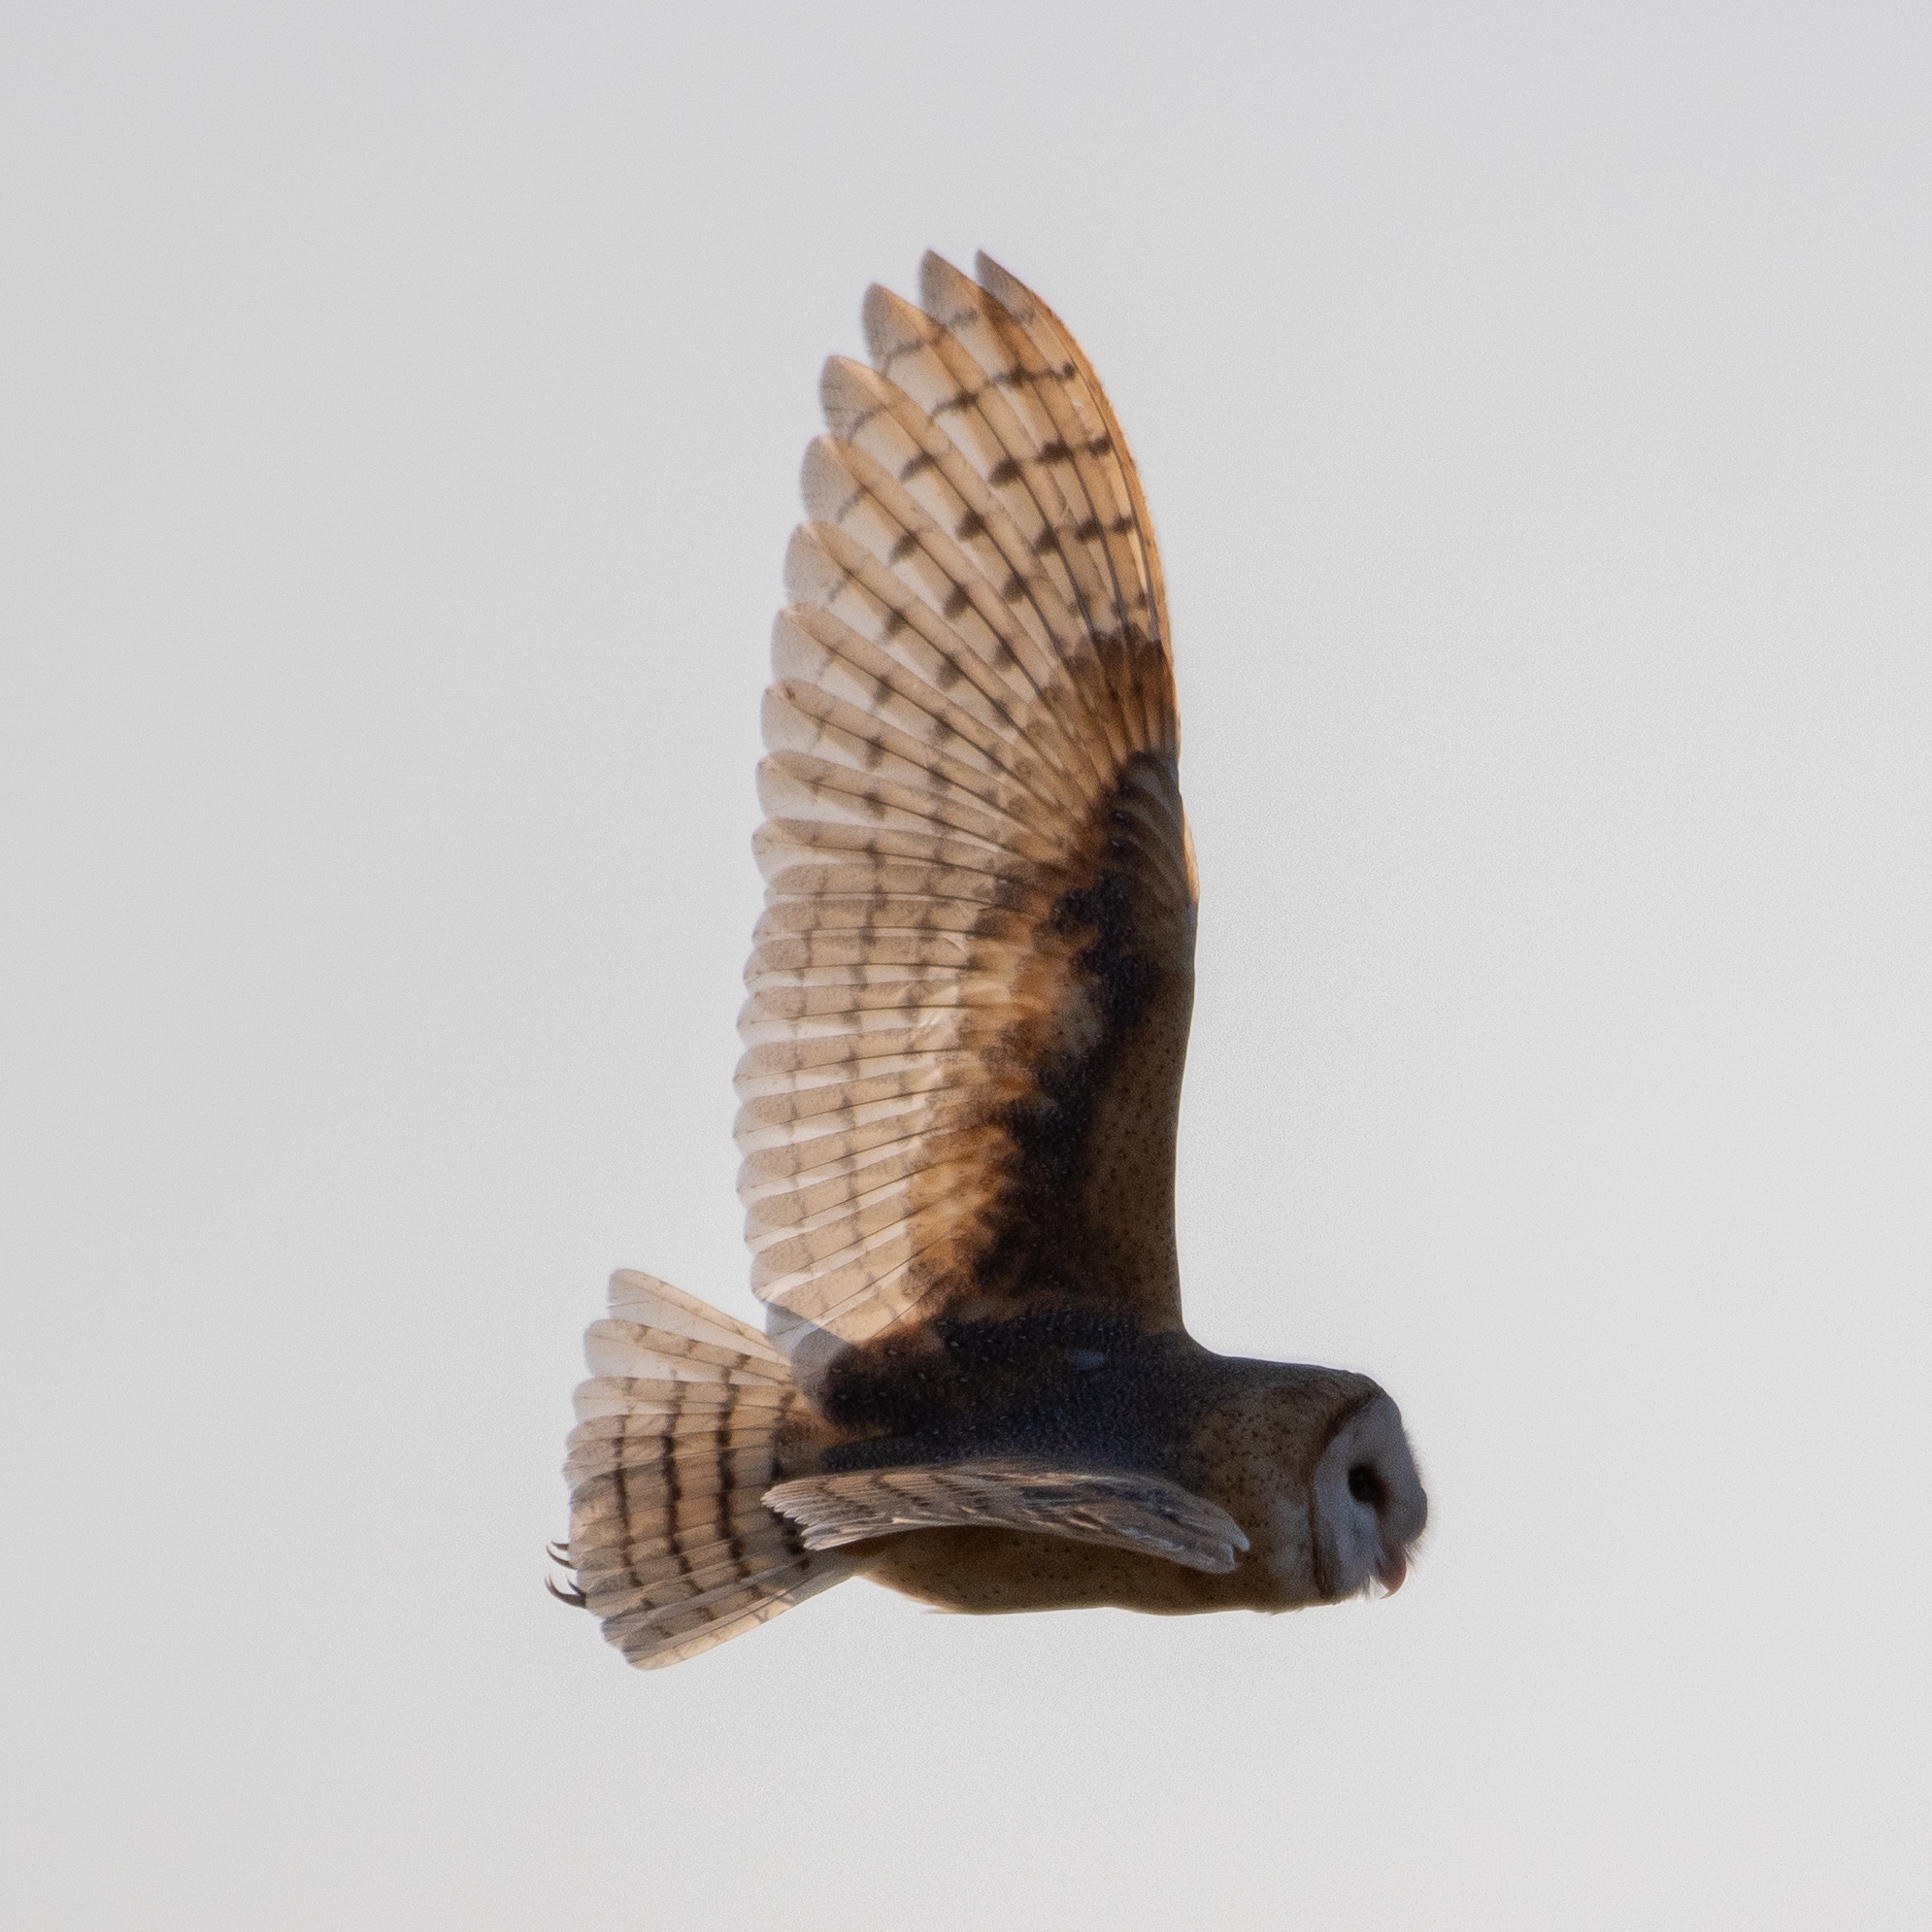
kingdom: Animalia
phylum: Chordata
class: Aves
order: Strigiformes
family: Tytonidae
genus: Tyto
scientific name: Tyto alba
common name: Barn owl
